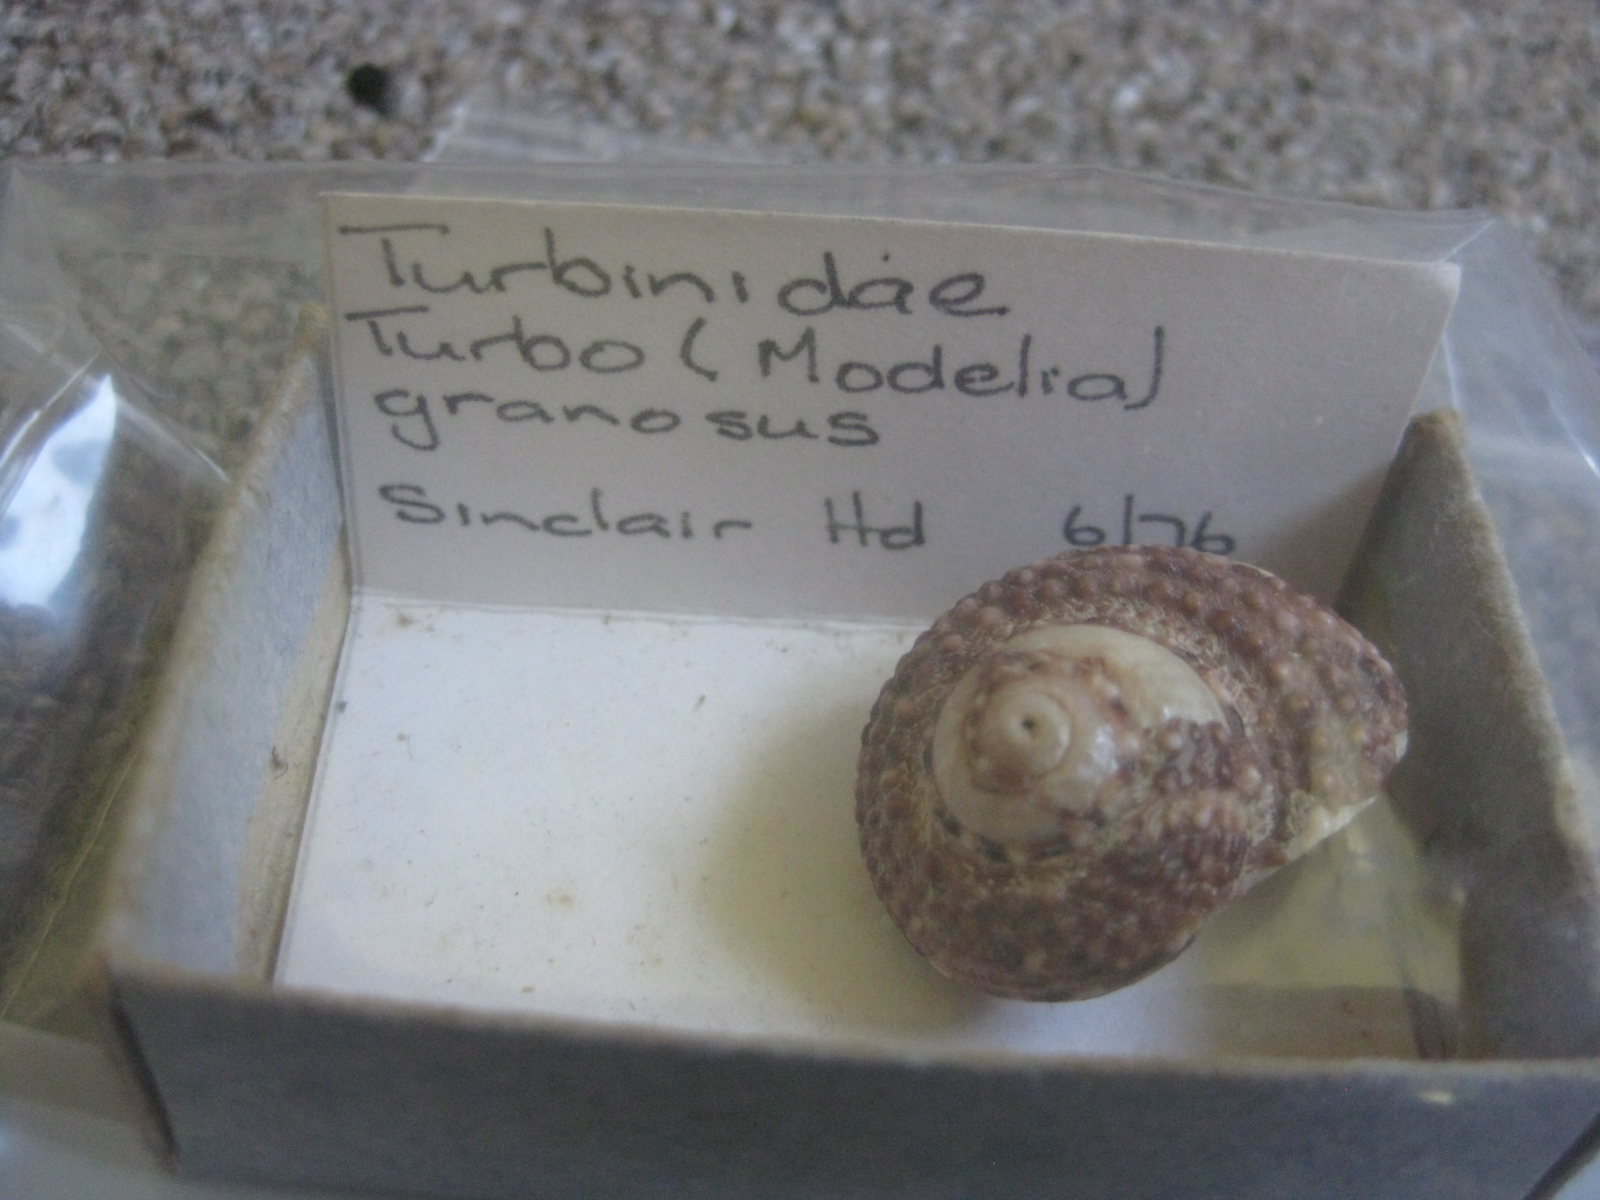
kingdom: Animalia
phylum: Mollusca
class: Gastropoda
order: Trochida
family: Turbinidae
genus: Modelia
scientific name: Modelia granosa
